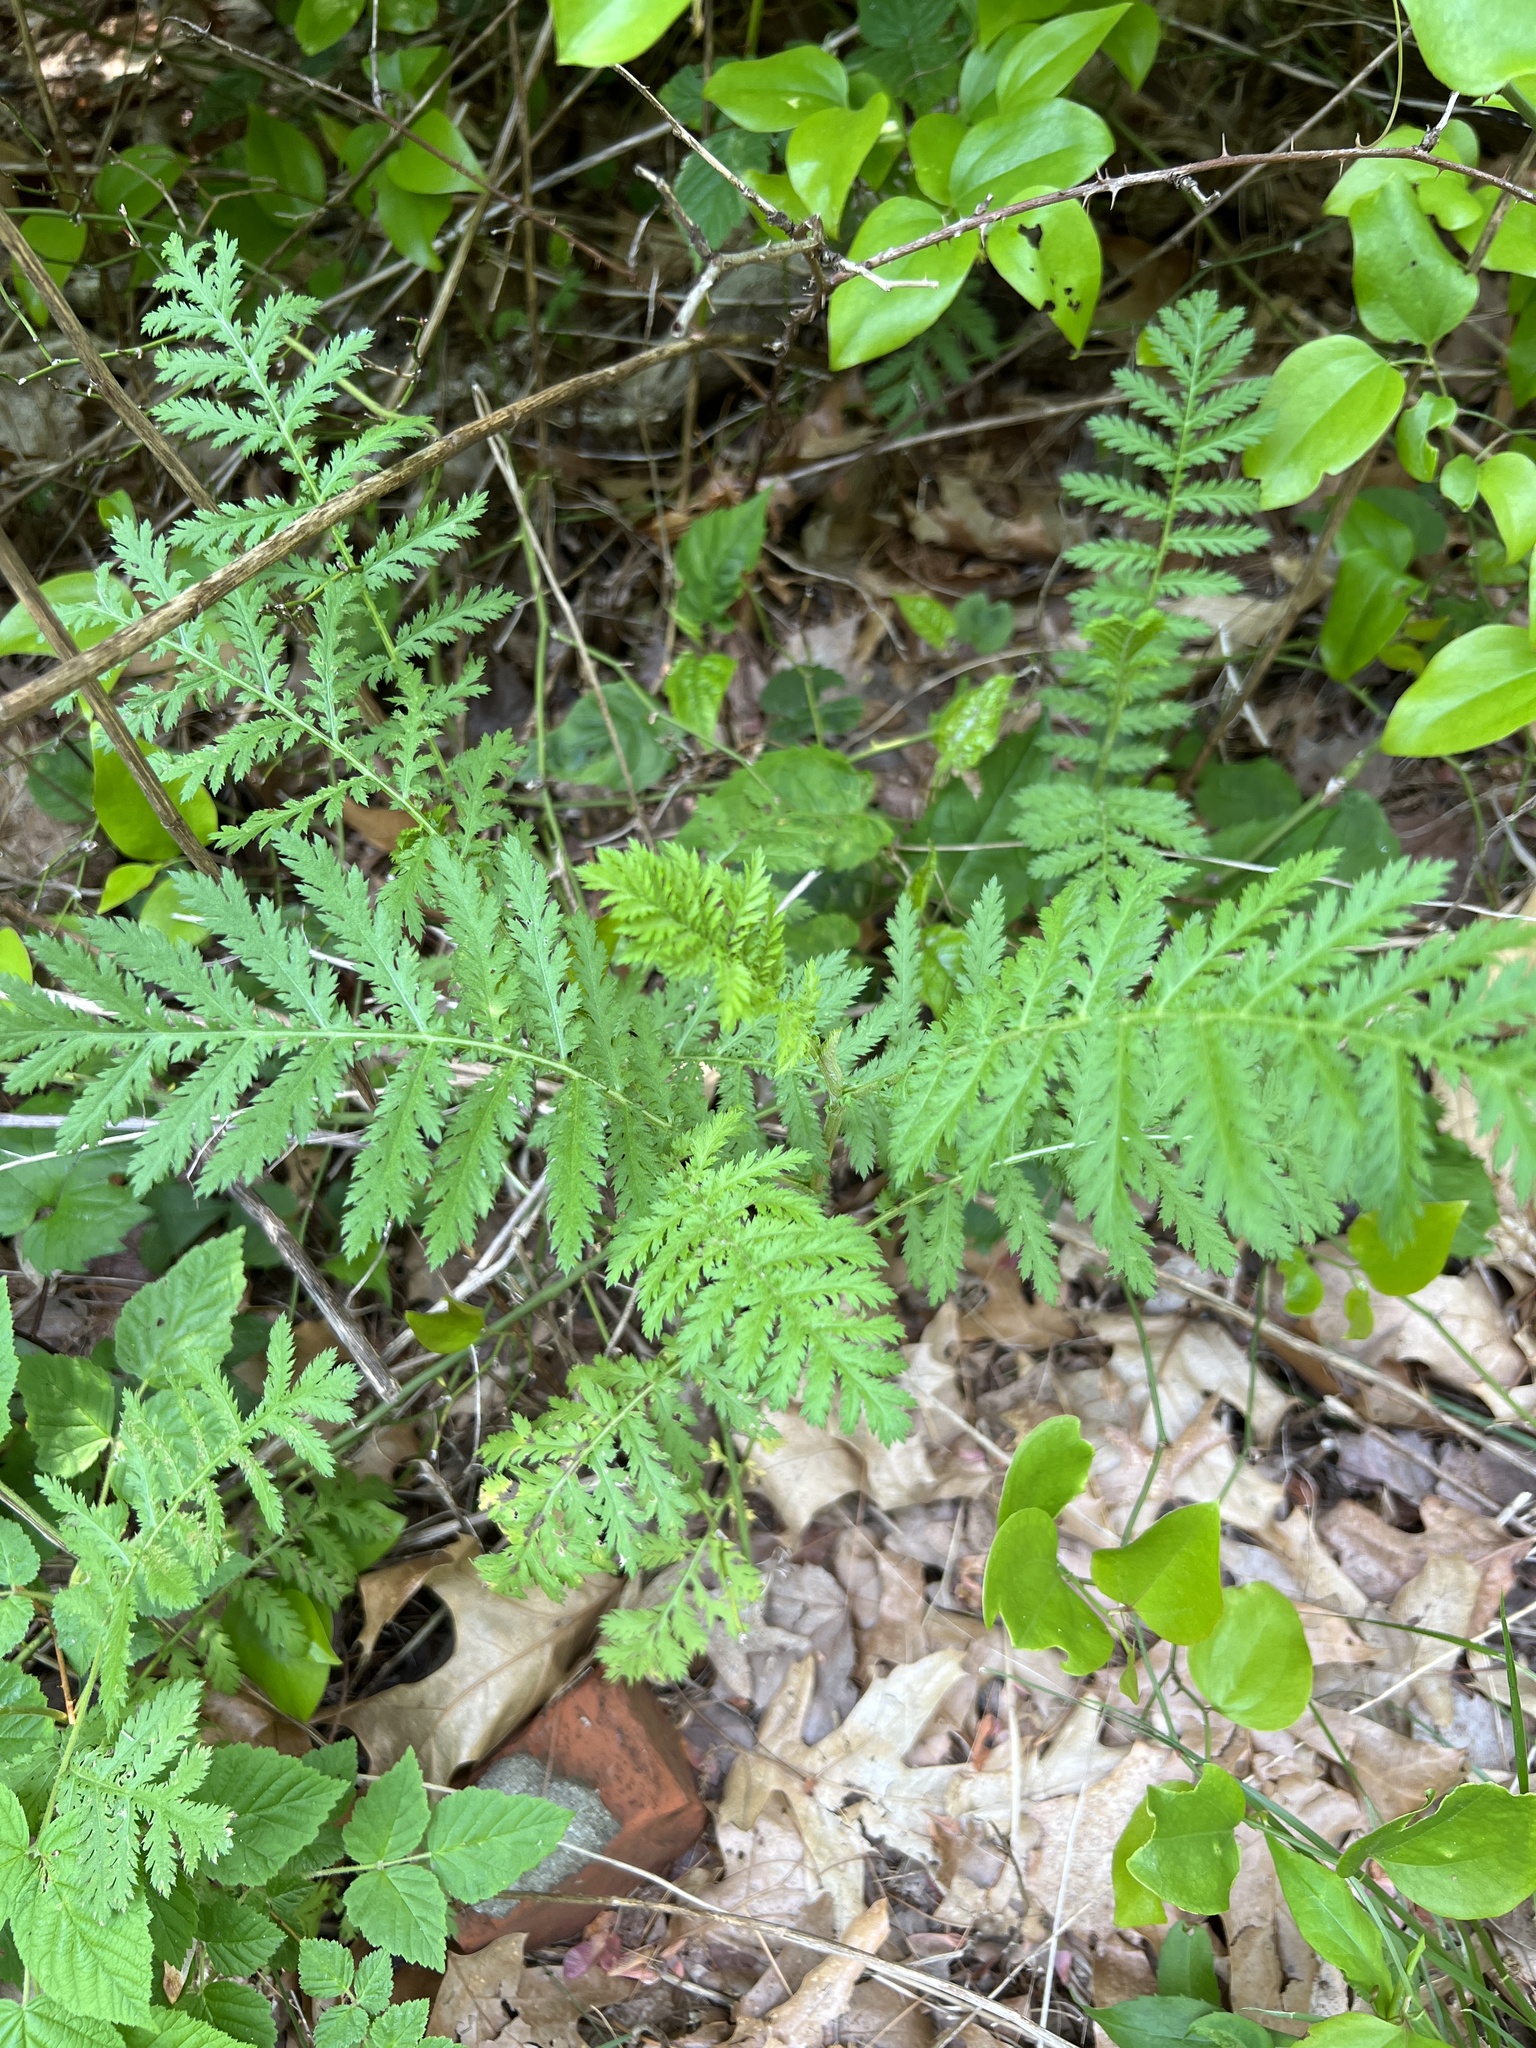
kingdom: Plantae
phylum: Tracheophyta
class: Magnoliopsida
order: Asterales
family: Asteraceae
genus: Tanacetum
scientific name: Tanacetum vulgare
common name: Common tansy
